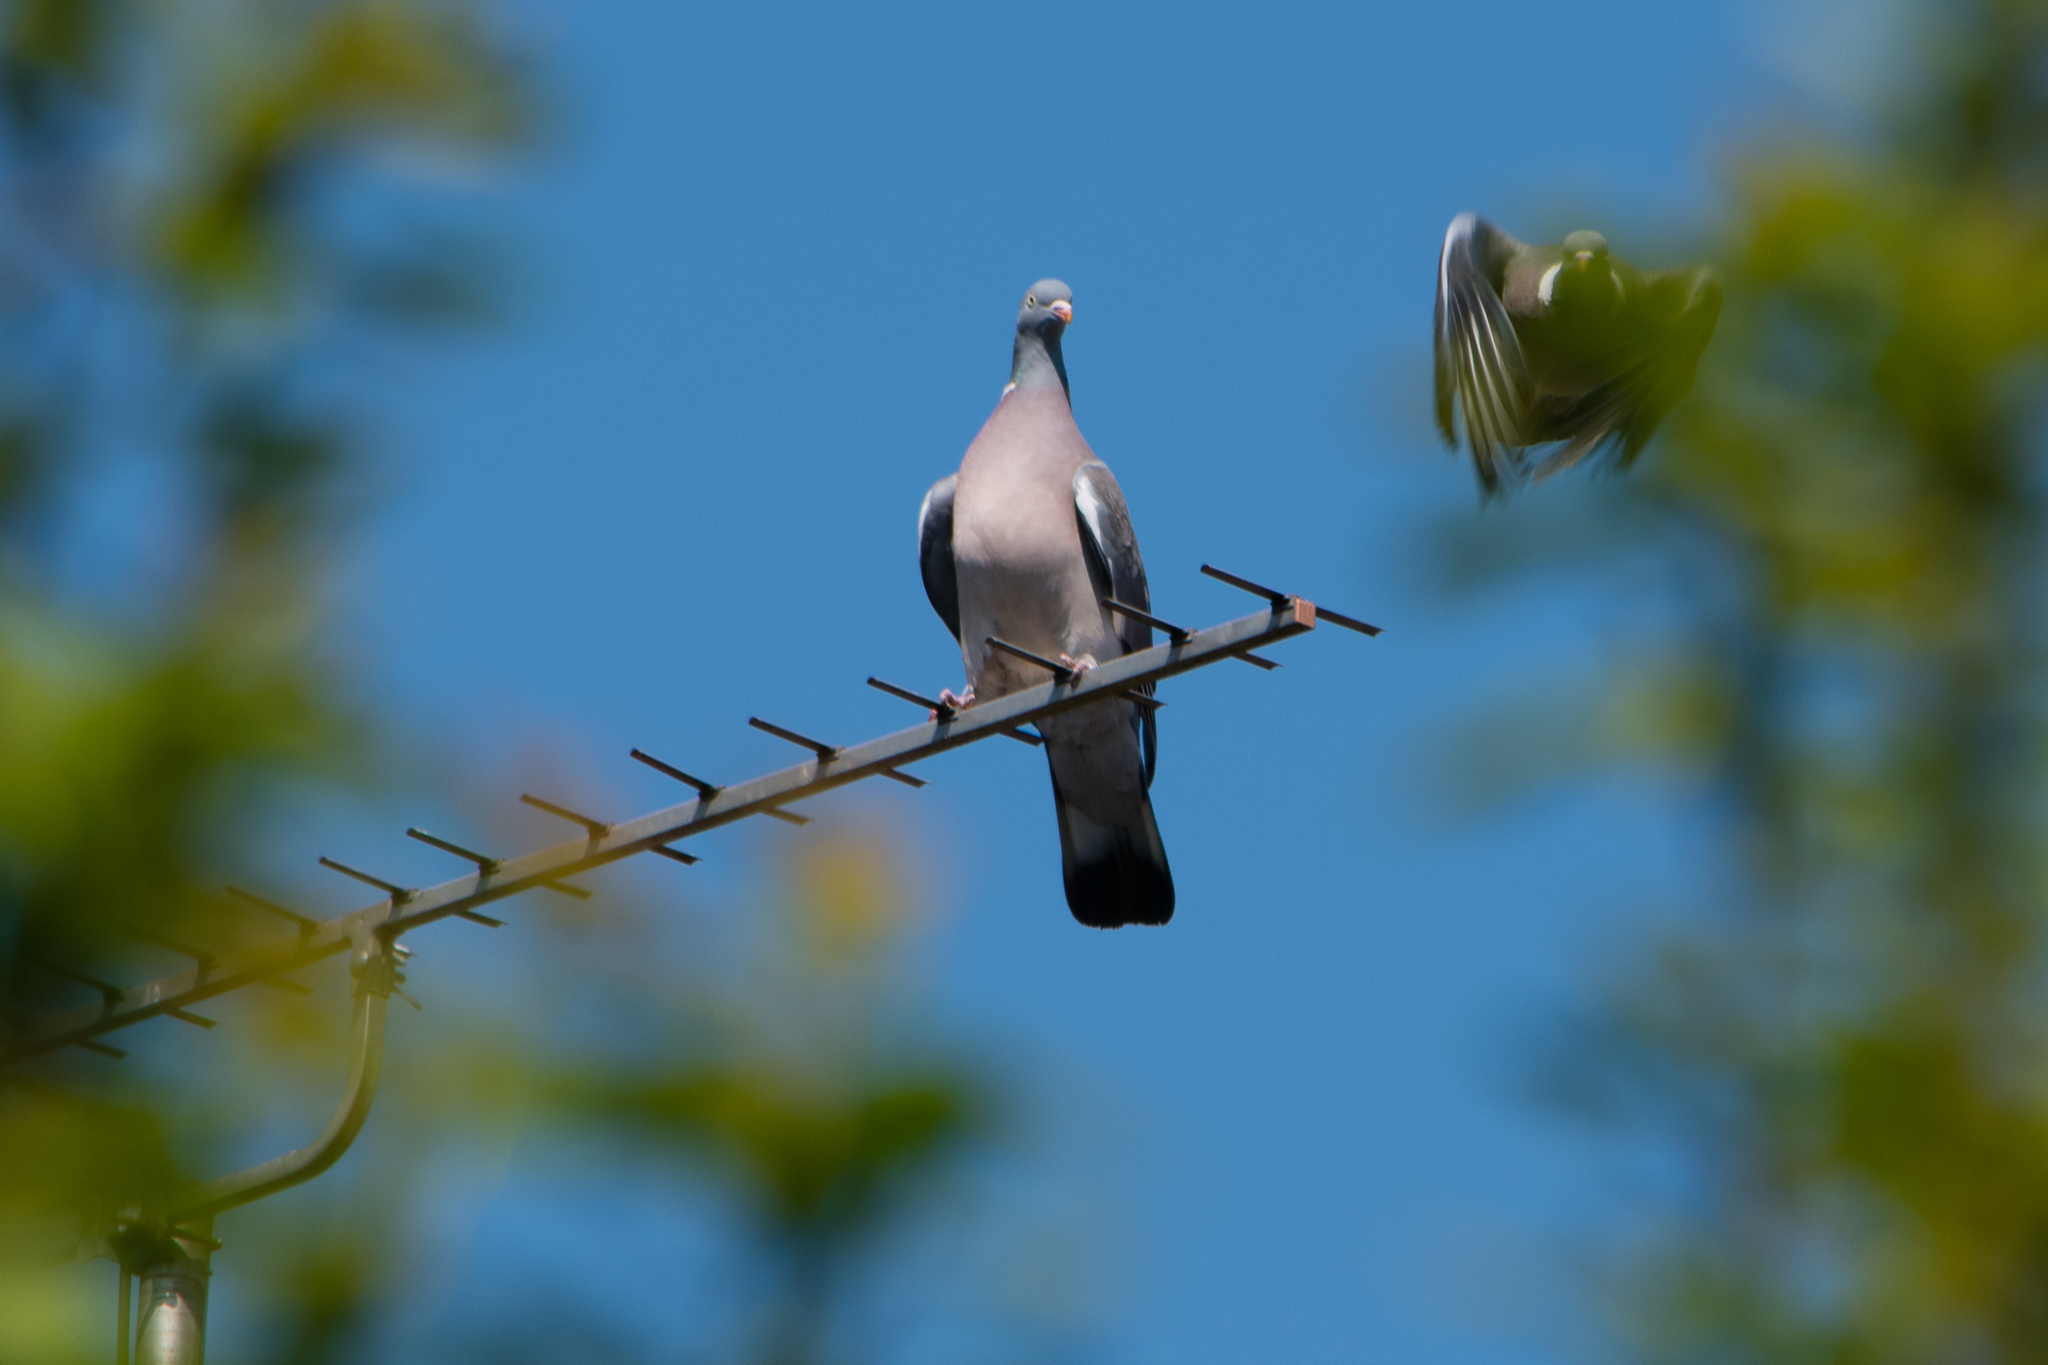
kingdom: Animalia
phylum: Chordata
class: Aves
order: Columbiformes
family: Columbidae
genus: Columba
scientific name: Columba palumbus
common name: Common wood pigeon
